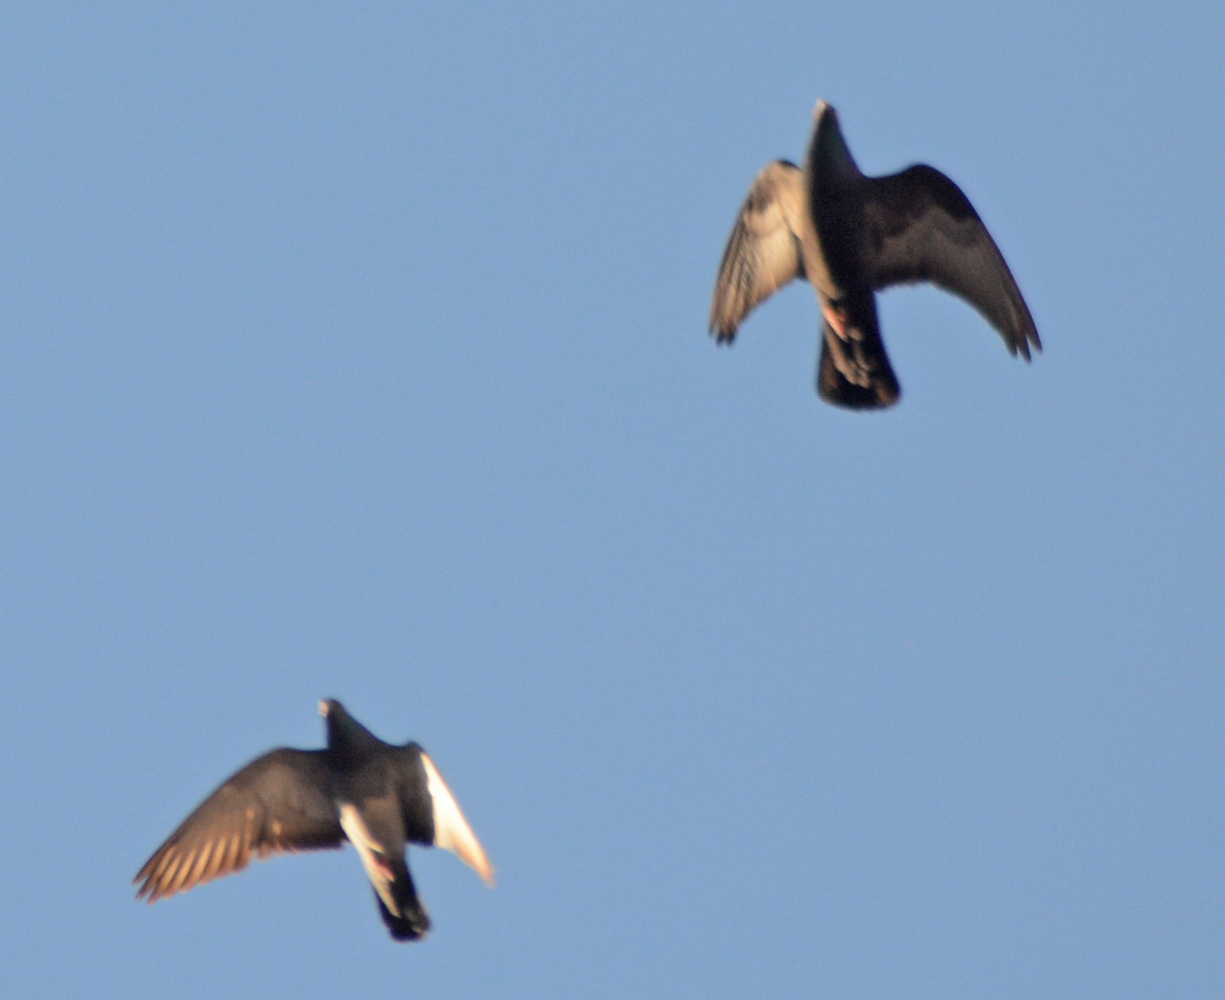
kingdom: Animalia
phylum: Chordata
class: Aves
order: Columbiformes
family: Columbidae
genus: Columba
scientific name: Columba livia
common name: Rock pigeon
